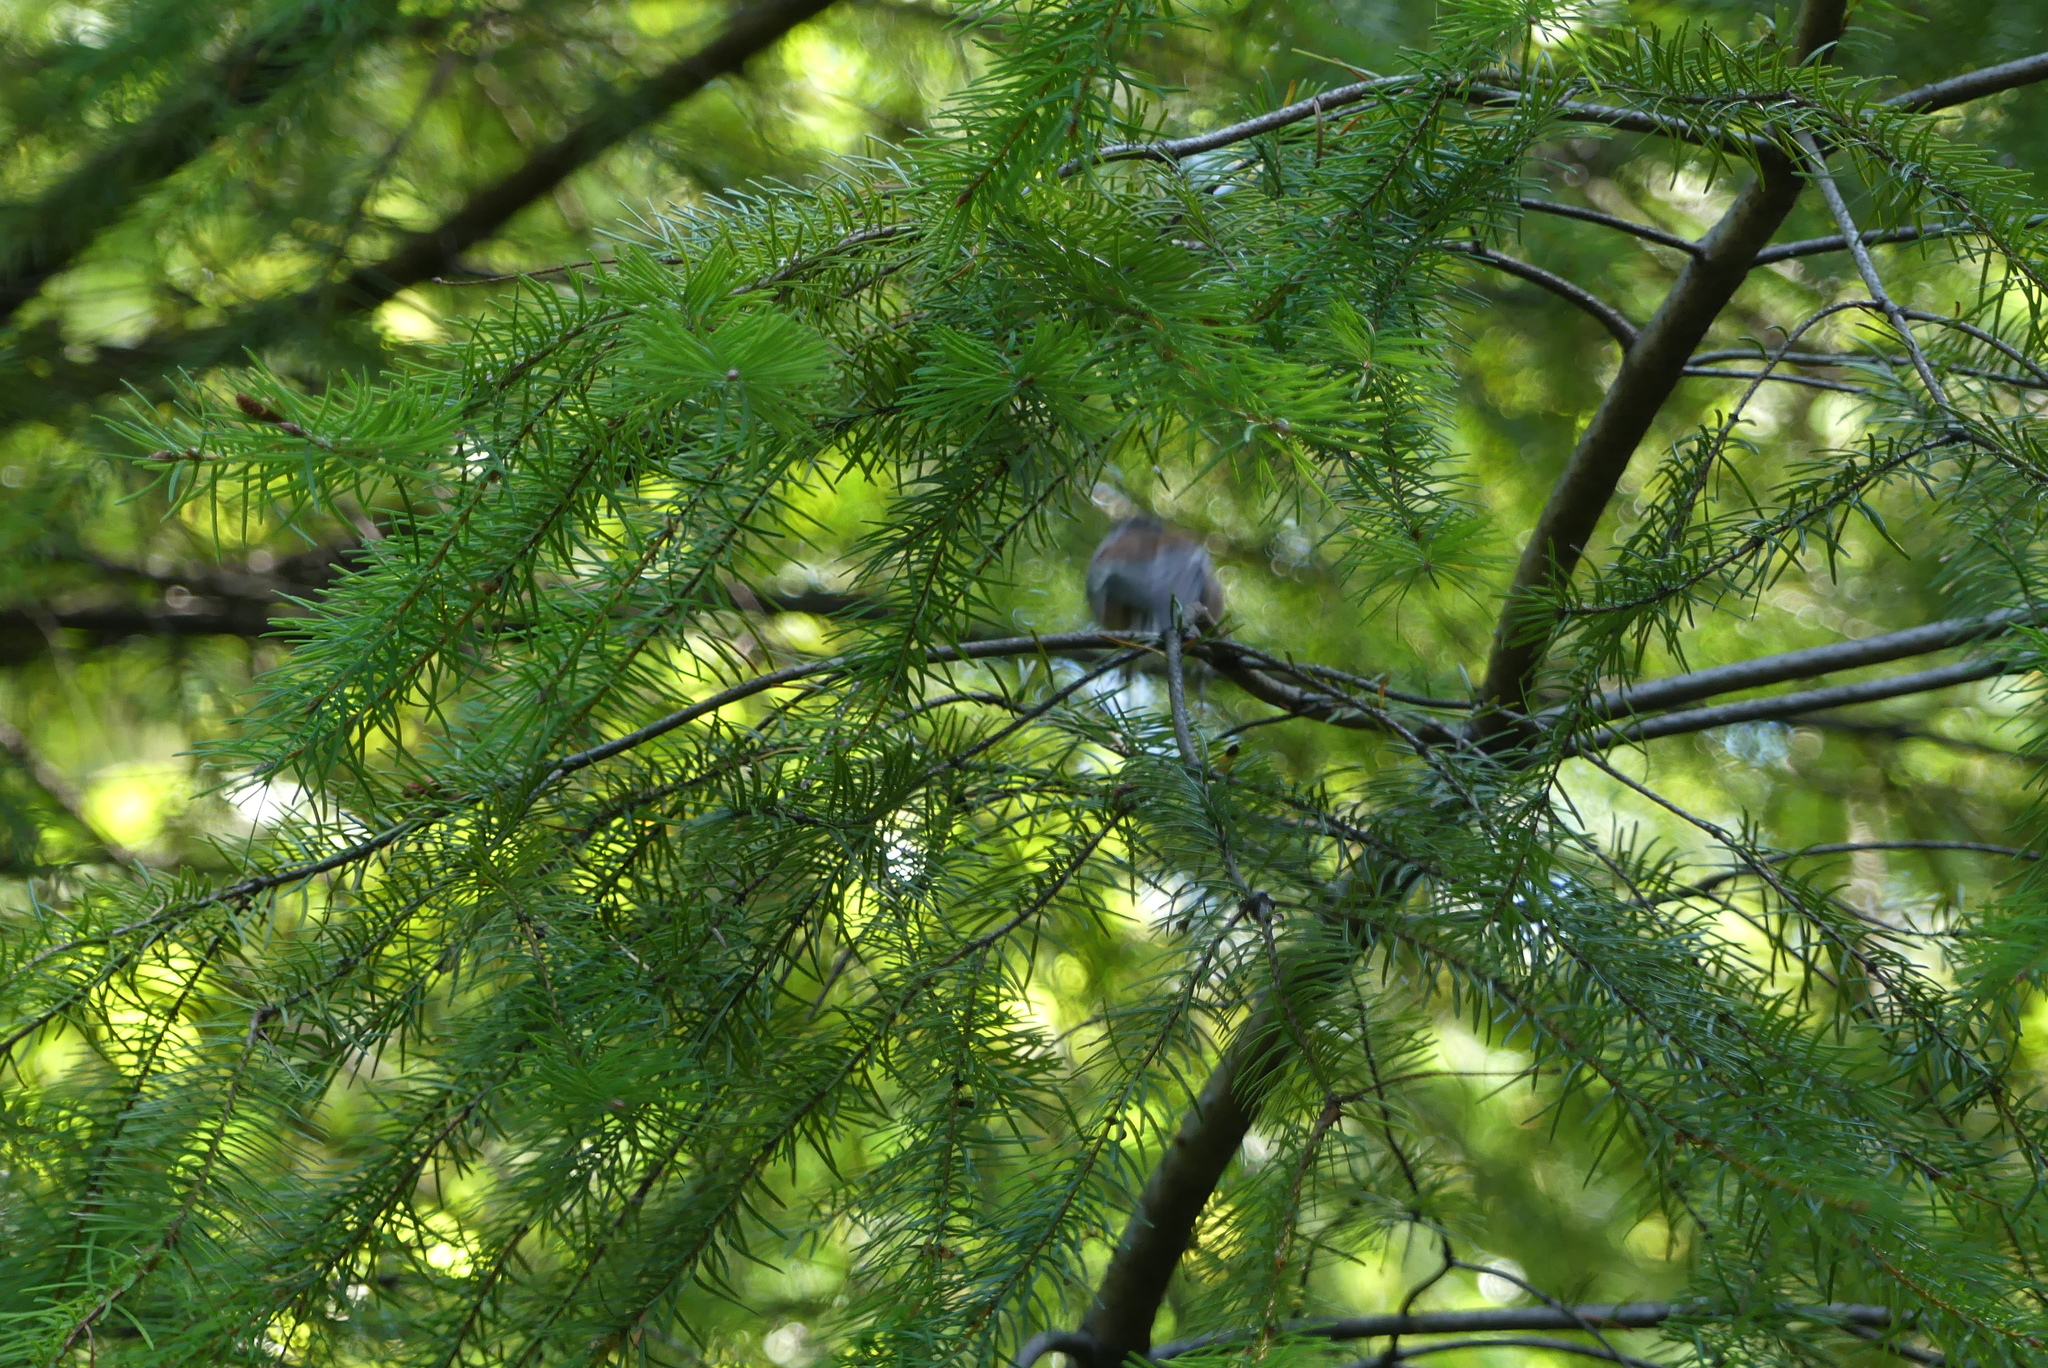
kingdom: Animalia
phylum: Chordata
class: Aves
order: Passeriformes
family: Paridae
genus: Poecile
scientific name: Poecile rufescens
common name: Chestnut-backed chickadee
